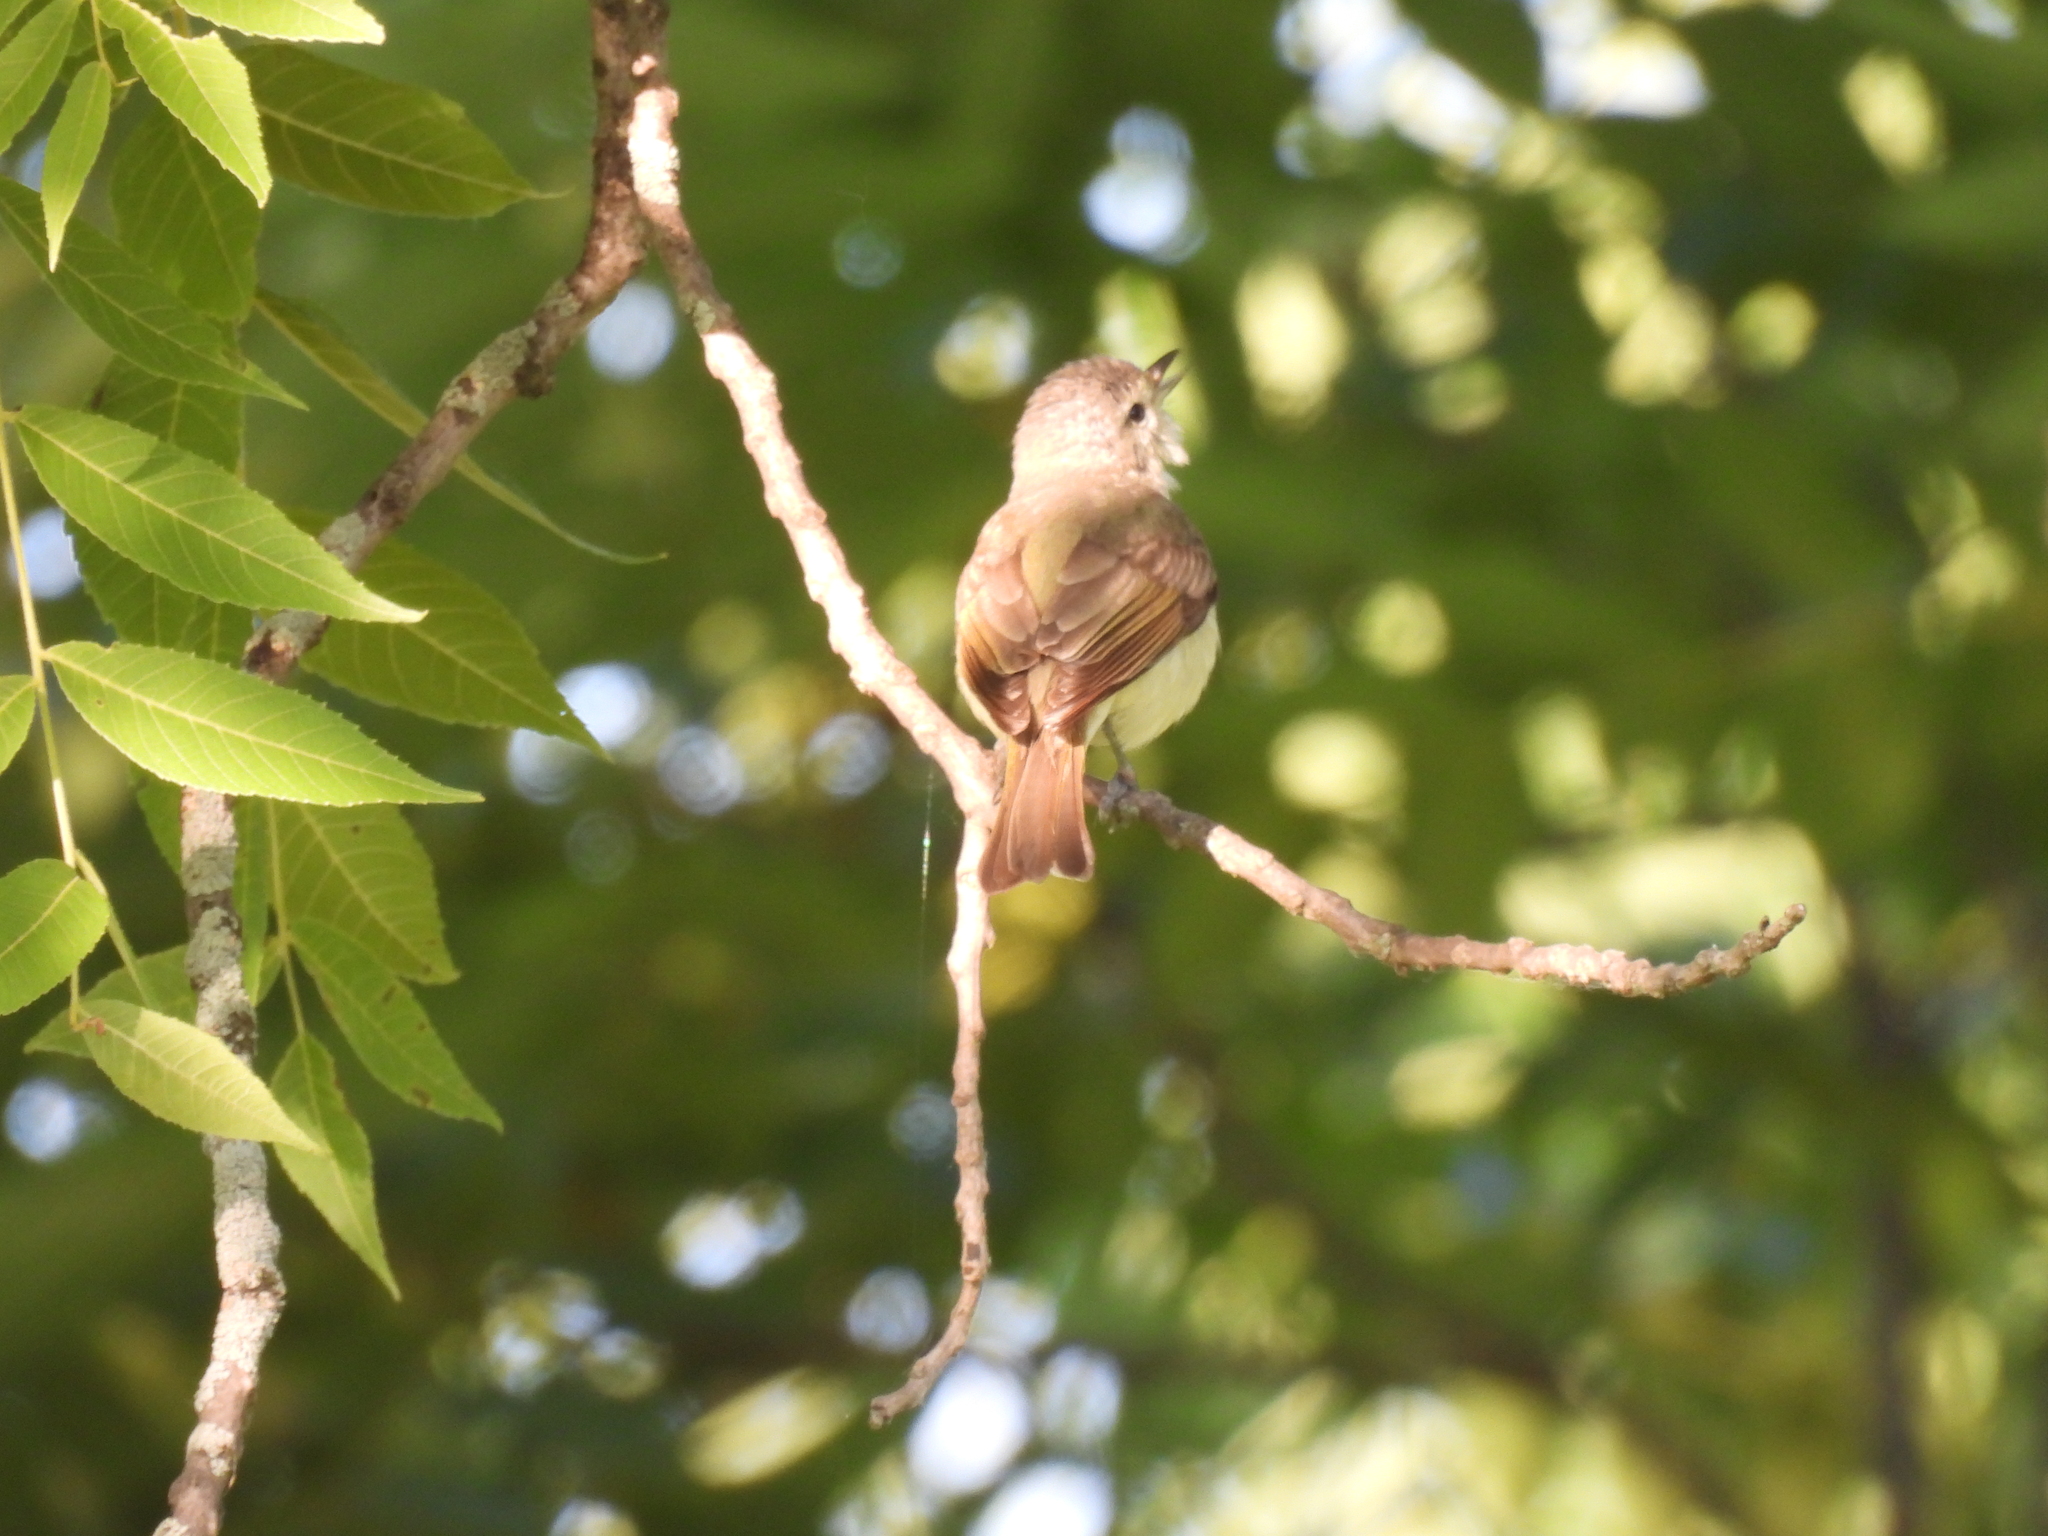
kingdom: Animalia
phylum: Chordata
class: Aves
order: Passeriformes
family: Vireonidae
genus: Vireo
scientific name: Vireo gilvus
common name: Warbling vireo
